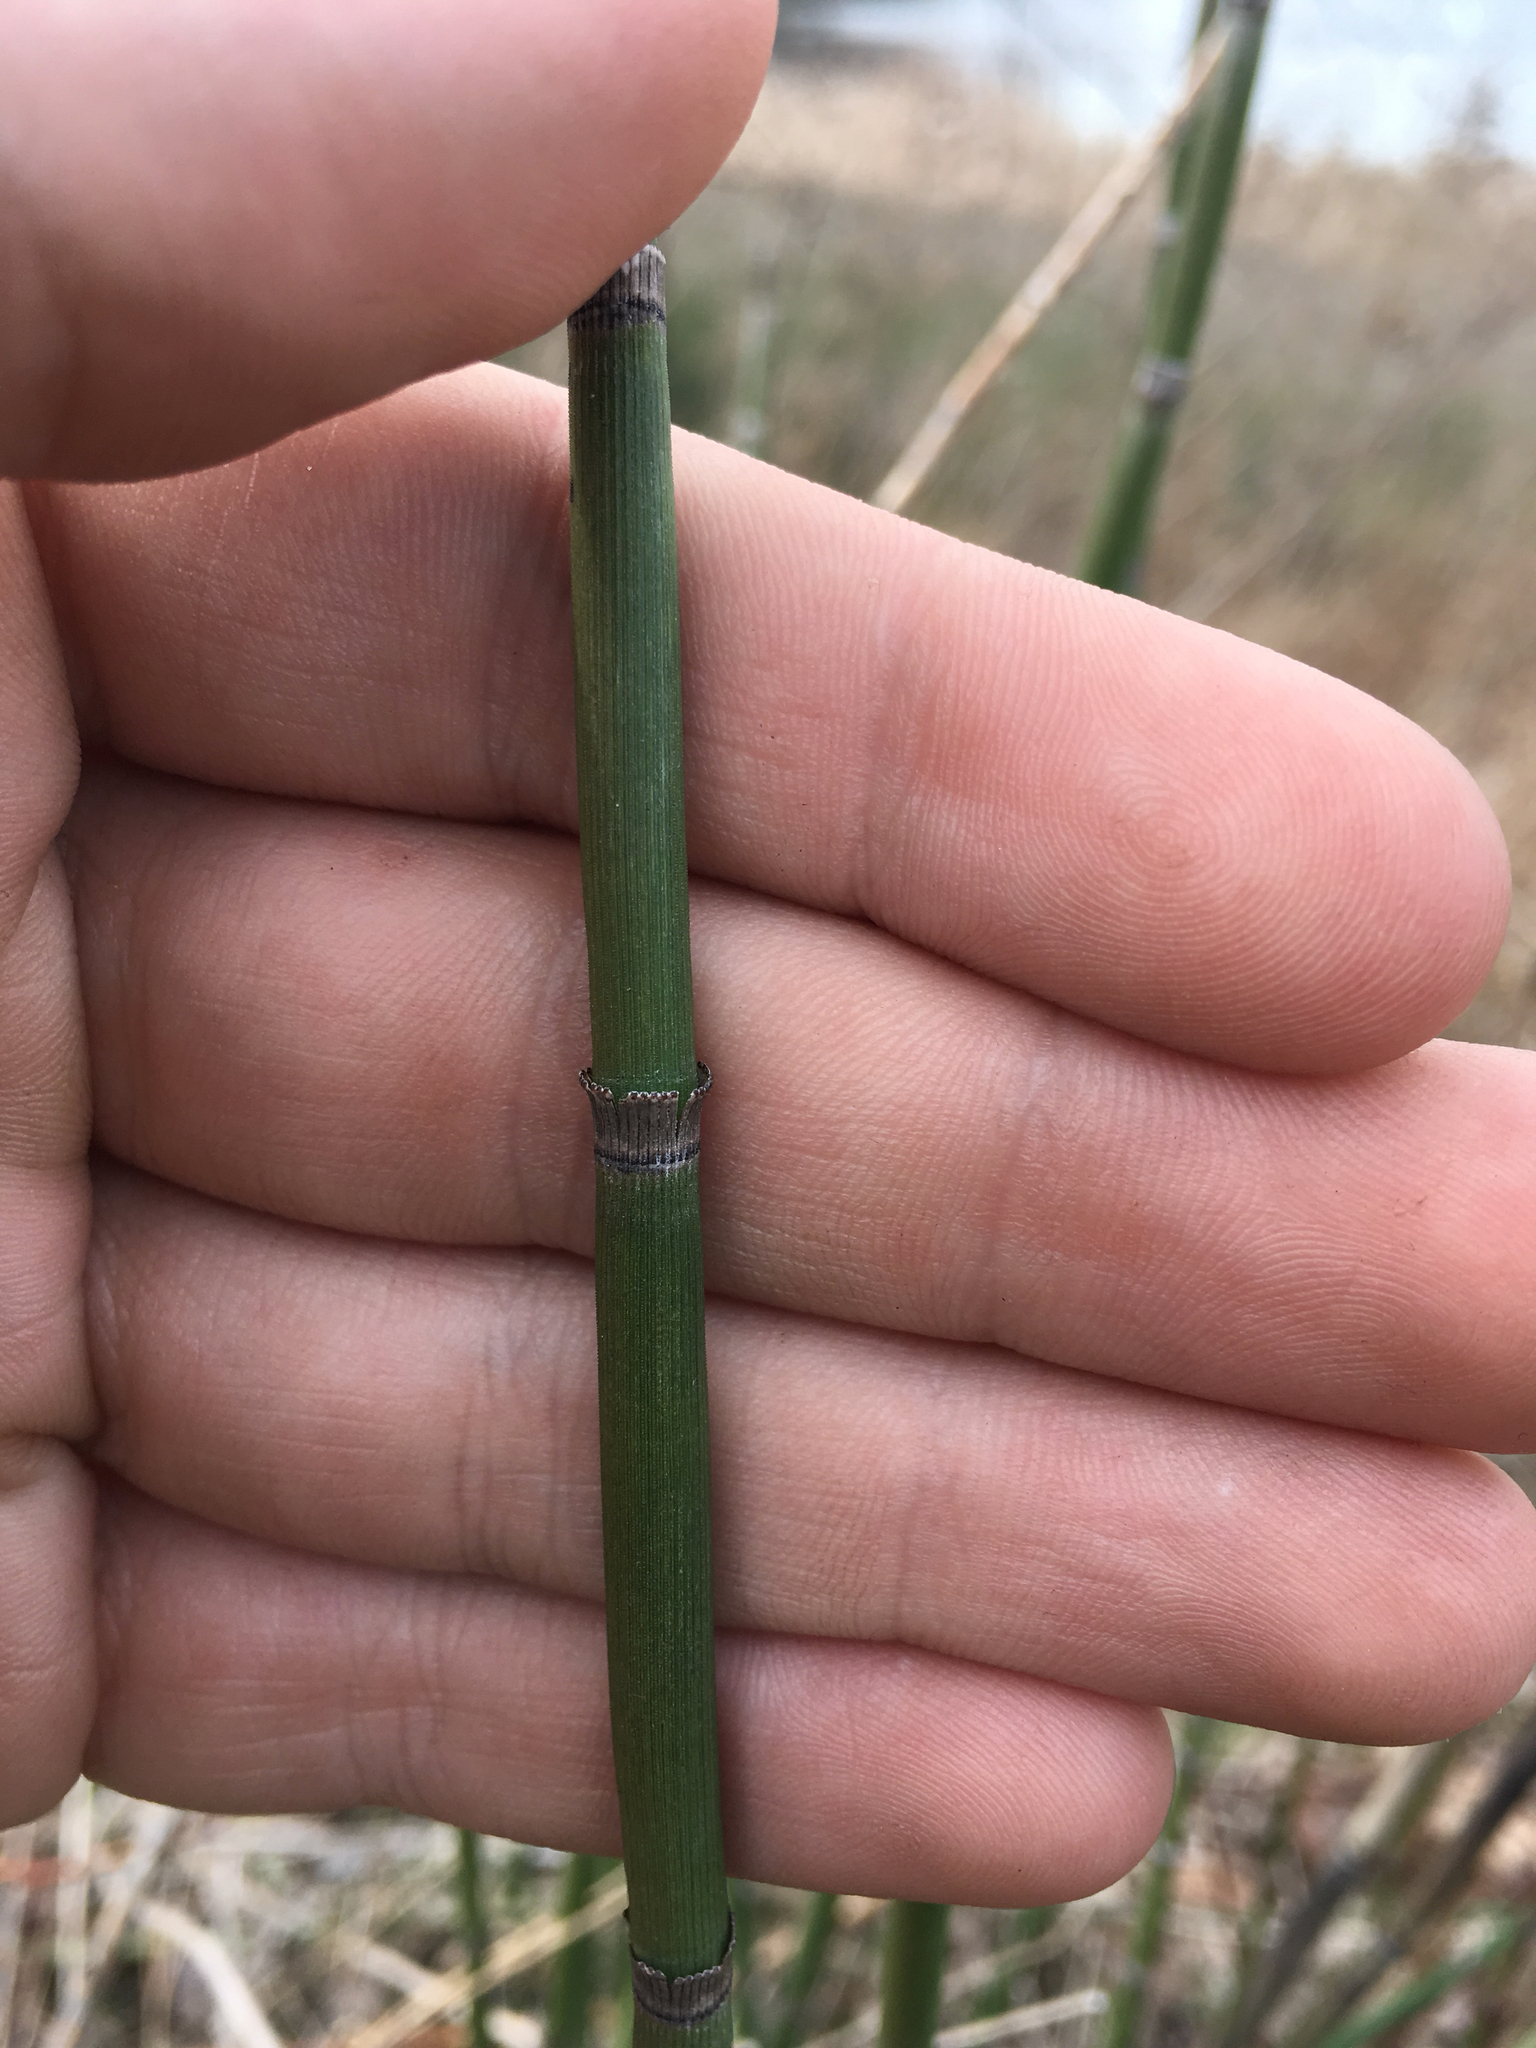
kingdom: Plantae
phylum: Tracheophyta
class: Polypodiopsida
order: Equisetales
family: Equisetaceae
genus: Equisetum
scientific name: Equisetum hyemale
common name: Rough horsetail
